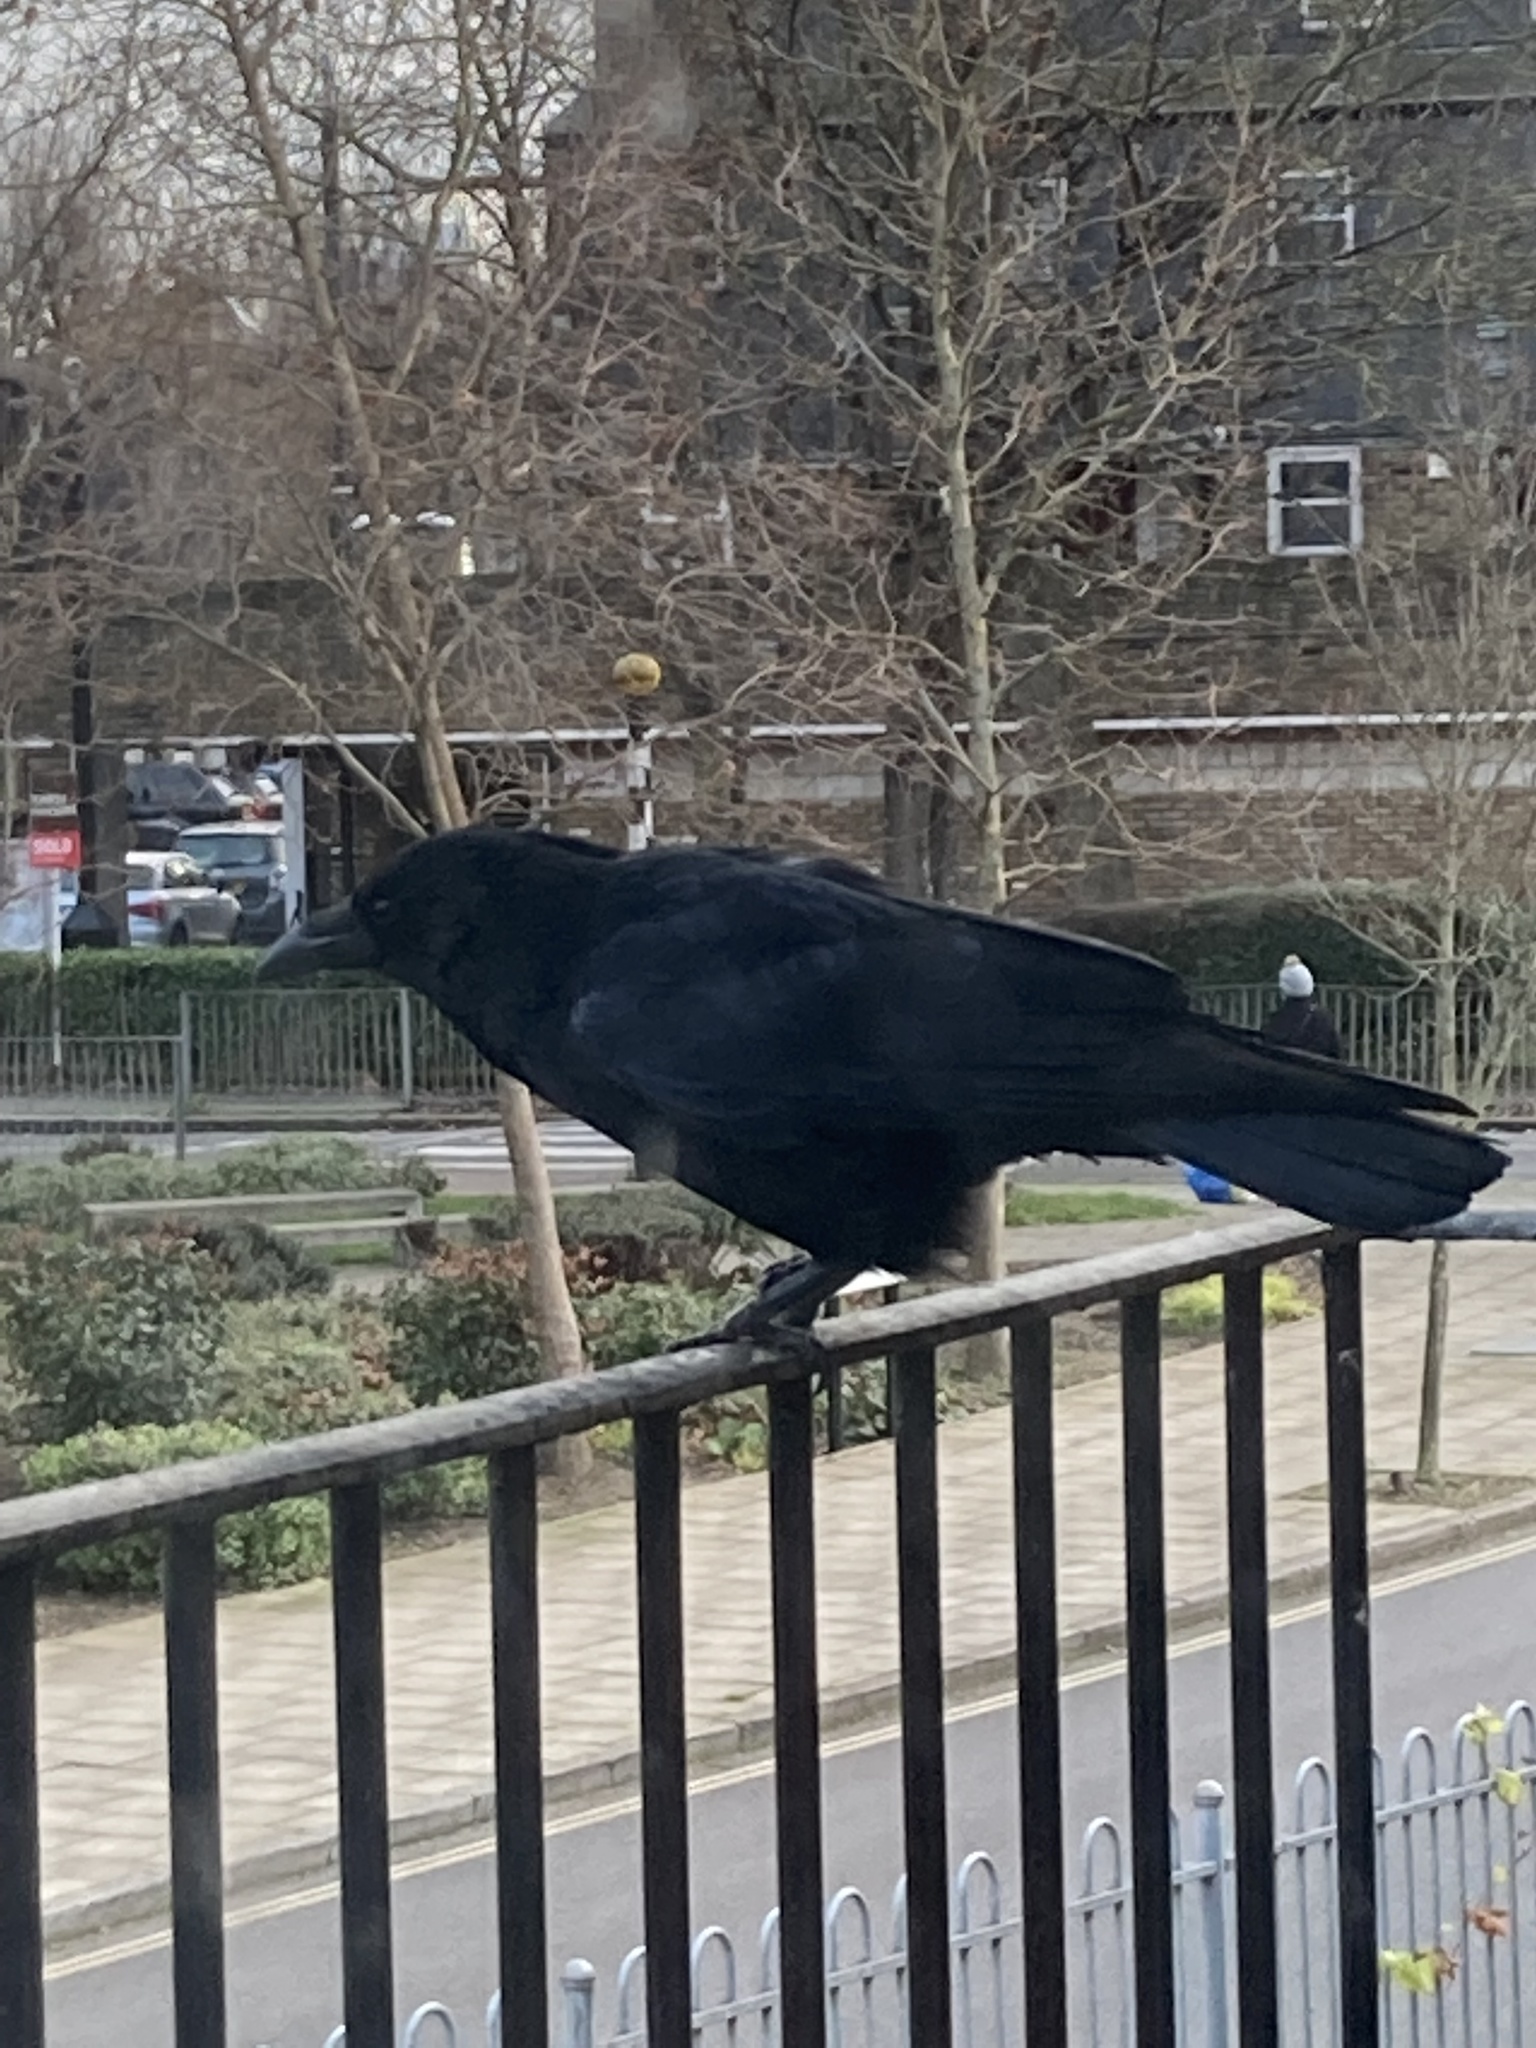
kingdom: Animalia
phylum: Chordata
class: Aves
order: Passeriformes
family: Corvidae
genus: Corvus
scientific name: Corvus corone
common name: Carrion crow
